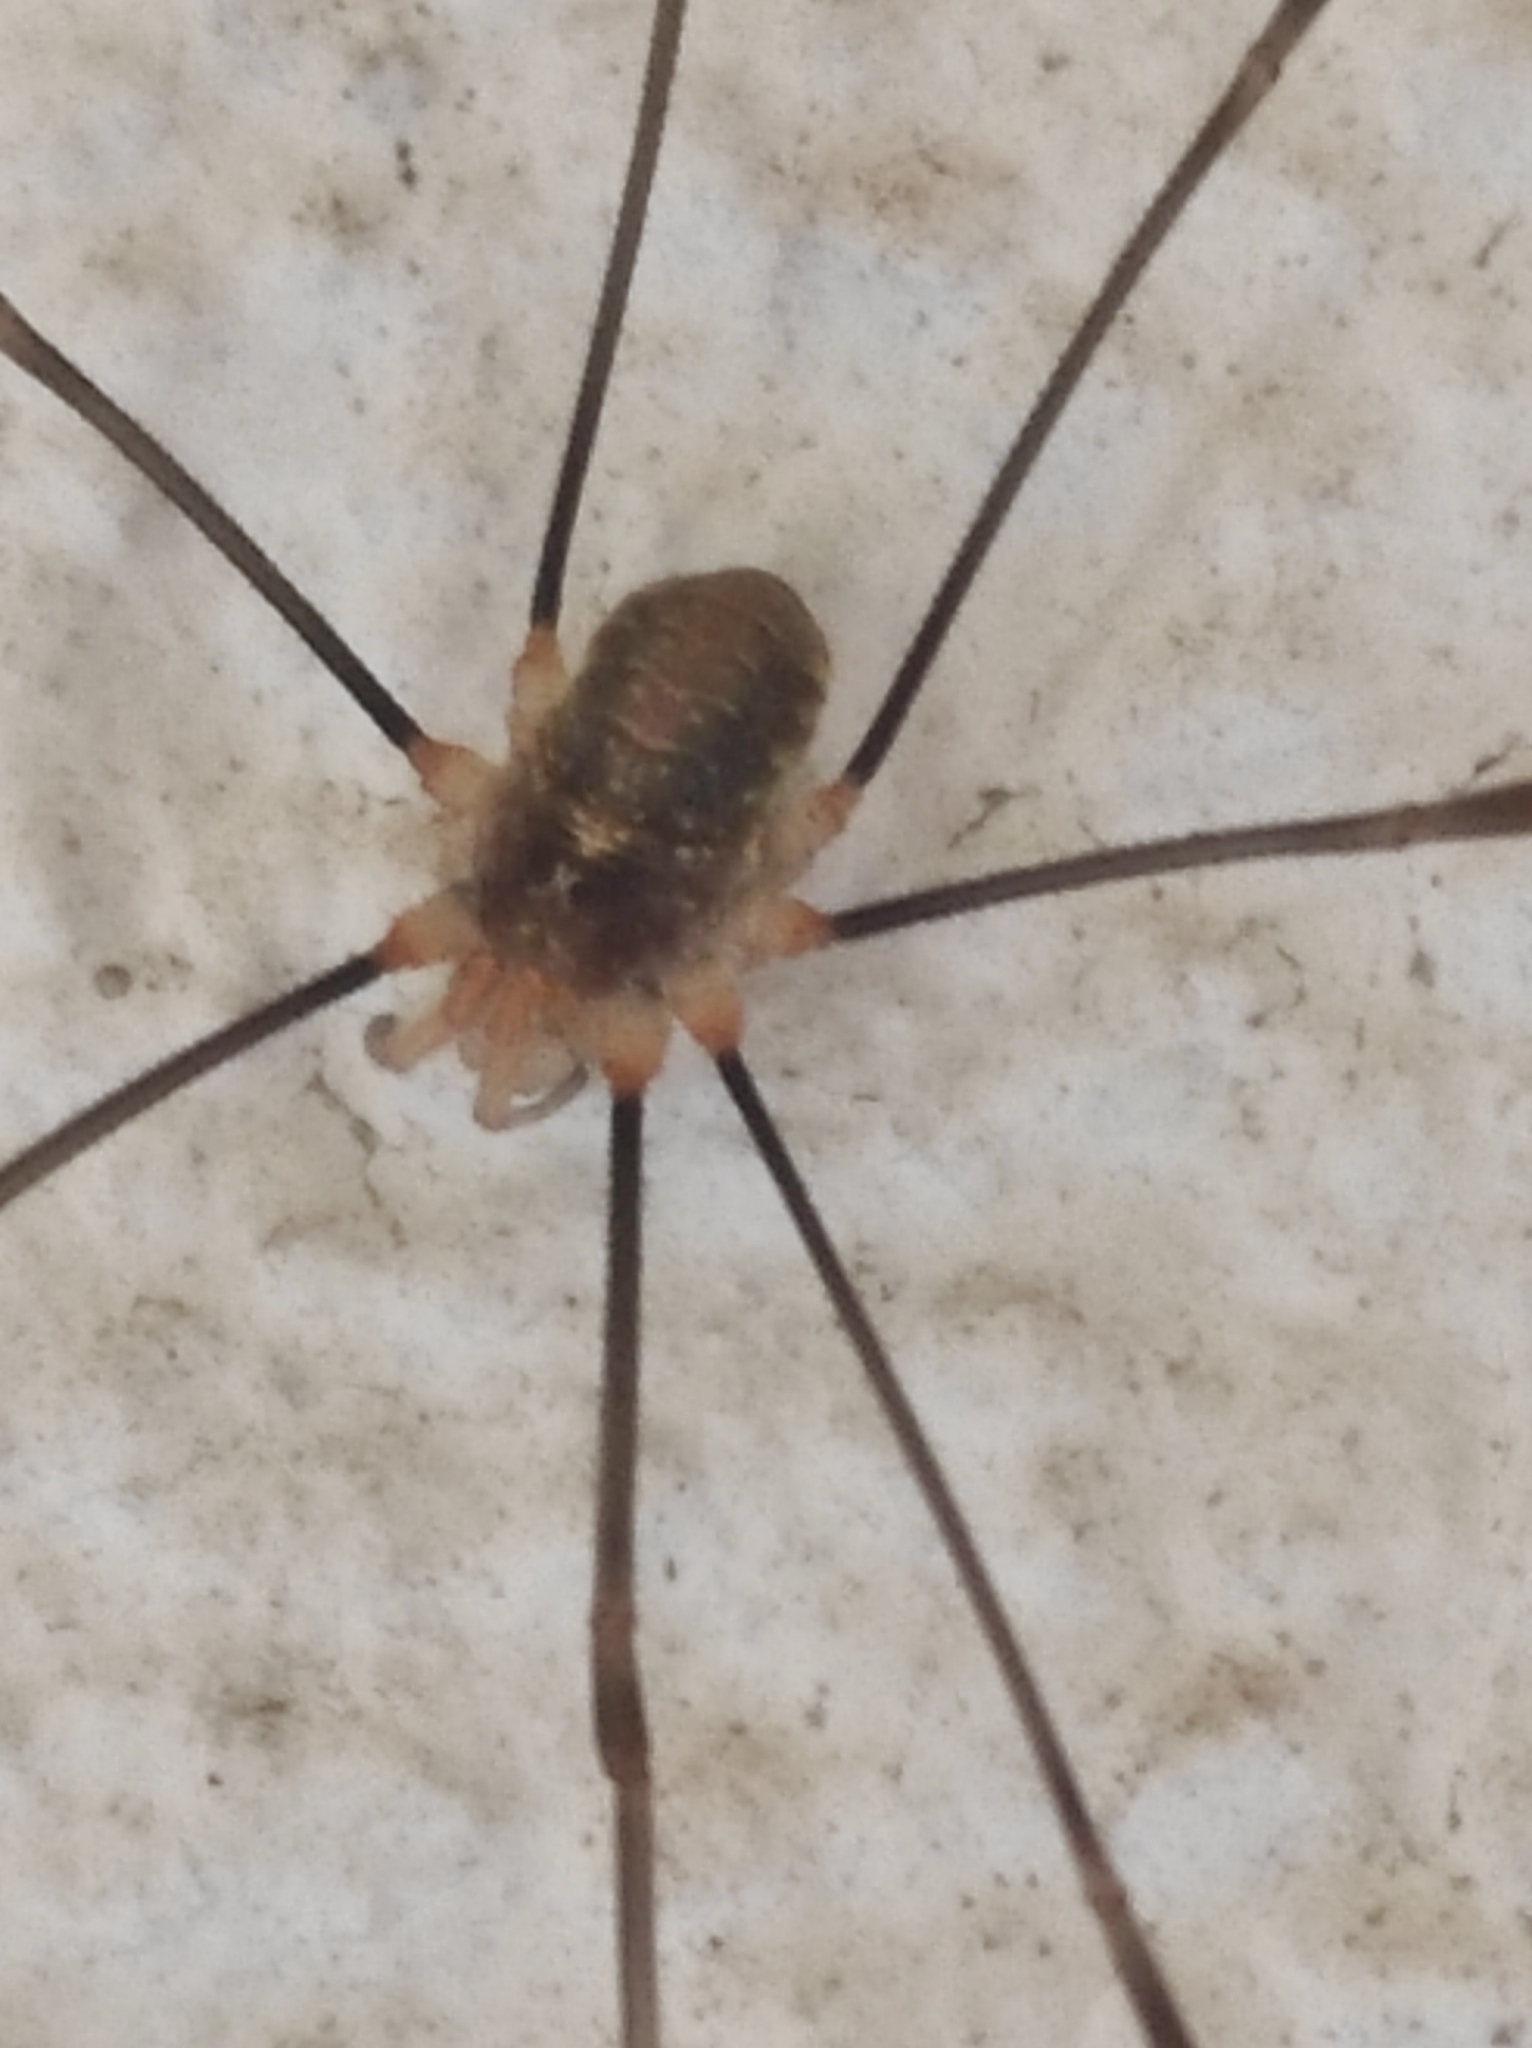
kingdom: Animalia
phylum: Arthropoda
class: Arachnida
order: Opiliones
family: Phalangiidae
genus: Opilio
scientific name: Opilio canestrinii
